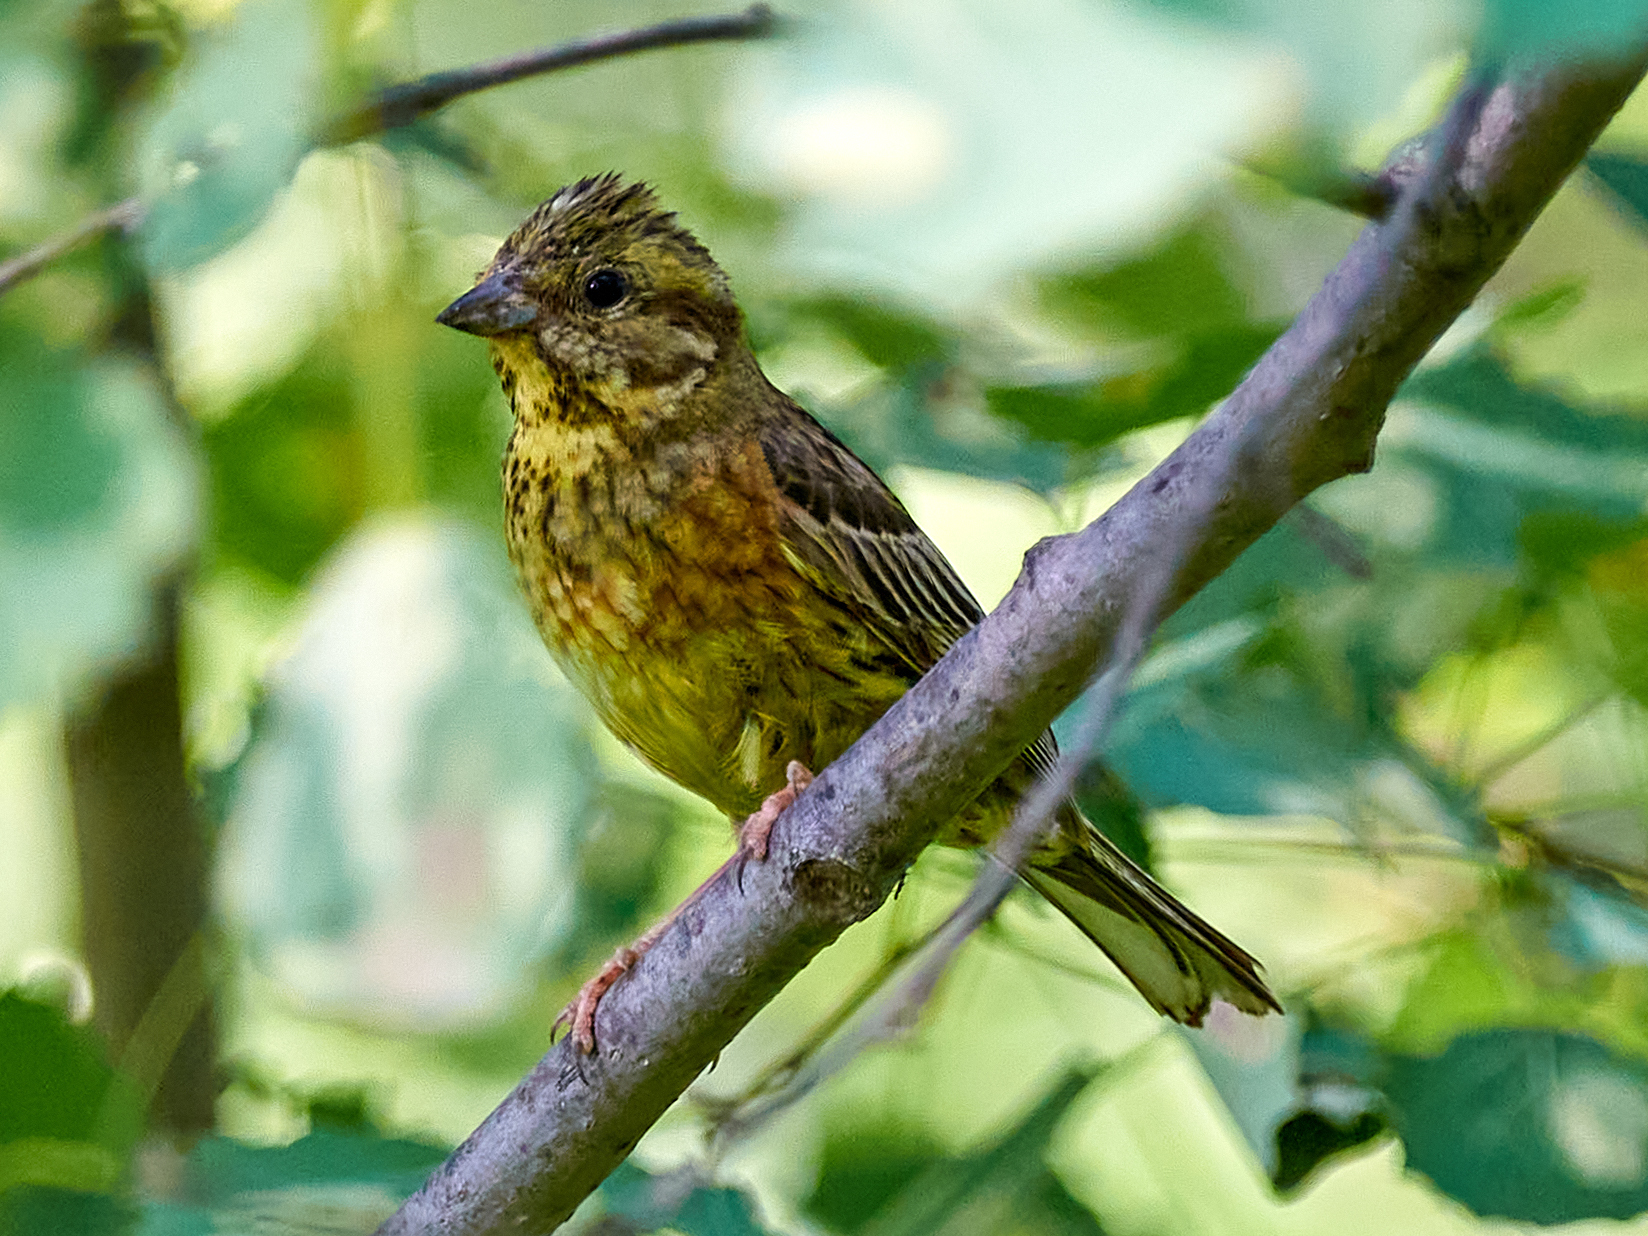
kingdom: Animalia
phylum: Chordata
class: Aves
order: Passeriformes
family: Emberizidae
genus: Emberiza
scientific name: Emberiza citrinella
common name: Yellowhammer
